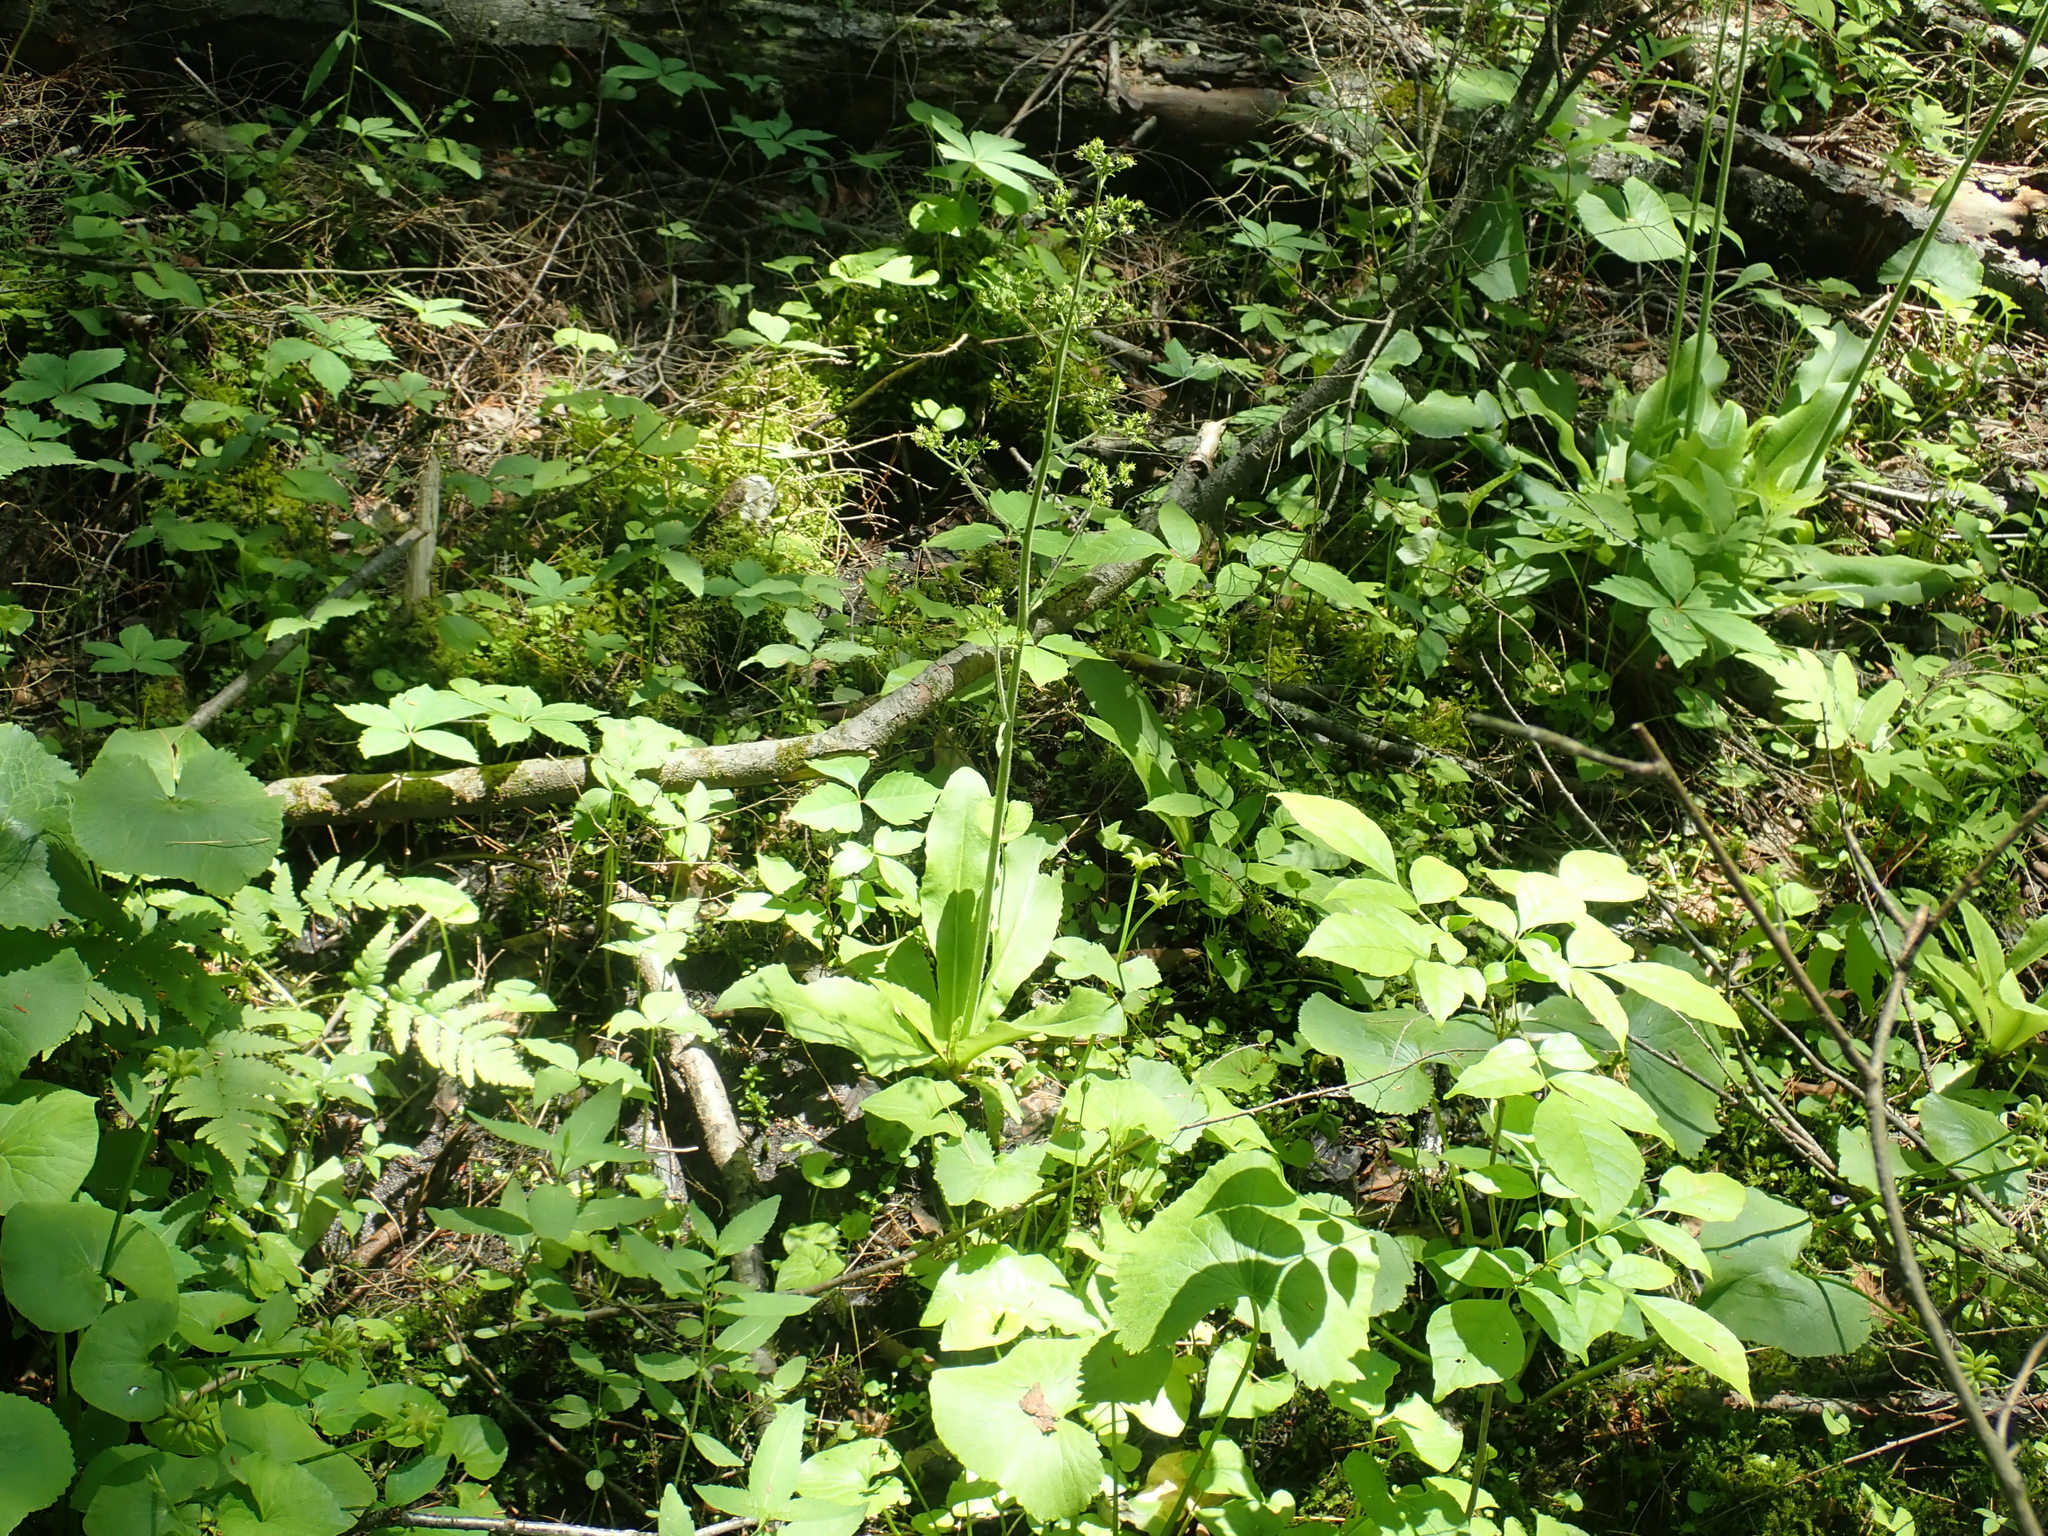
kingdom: Plantae
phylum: Tracheophyta
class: Magnoliopsida
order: Saxifragales
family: Saxifragaceae
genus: Micranthes
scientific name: Micranthes pensylvanica
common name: Marsh saxifrage
